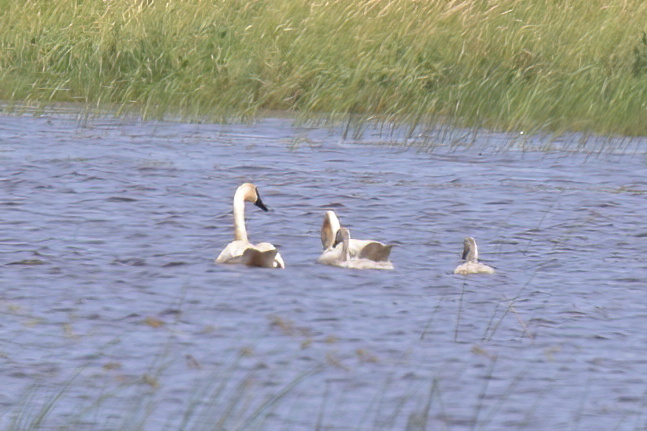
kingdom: Animalia
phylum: Chordata
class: Aves
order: Anseriformes
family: Anatidae
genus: Cygnus
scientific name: Cygnus buccinator
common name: Trumpeter swan
